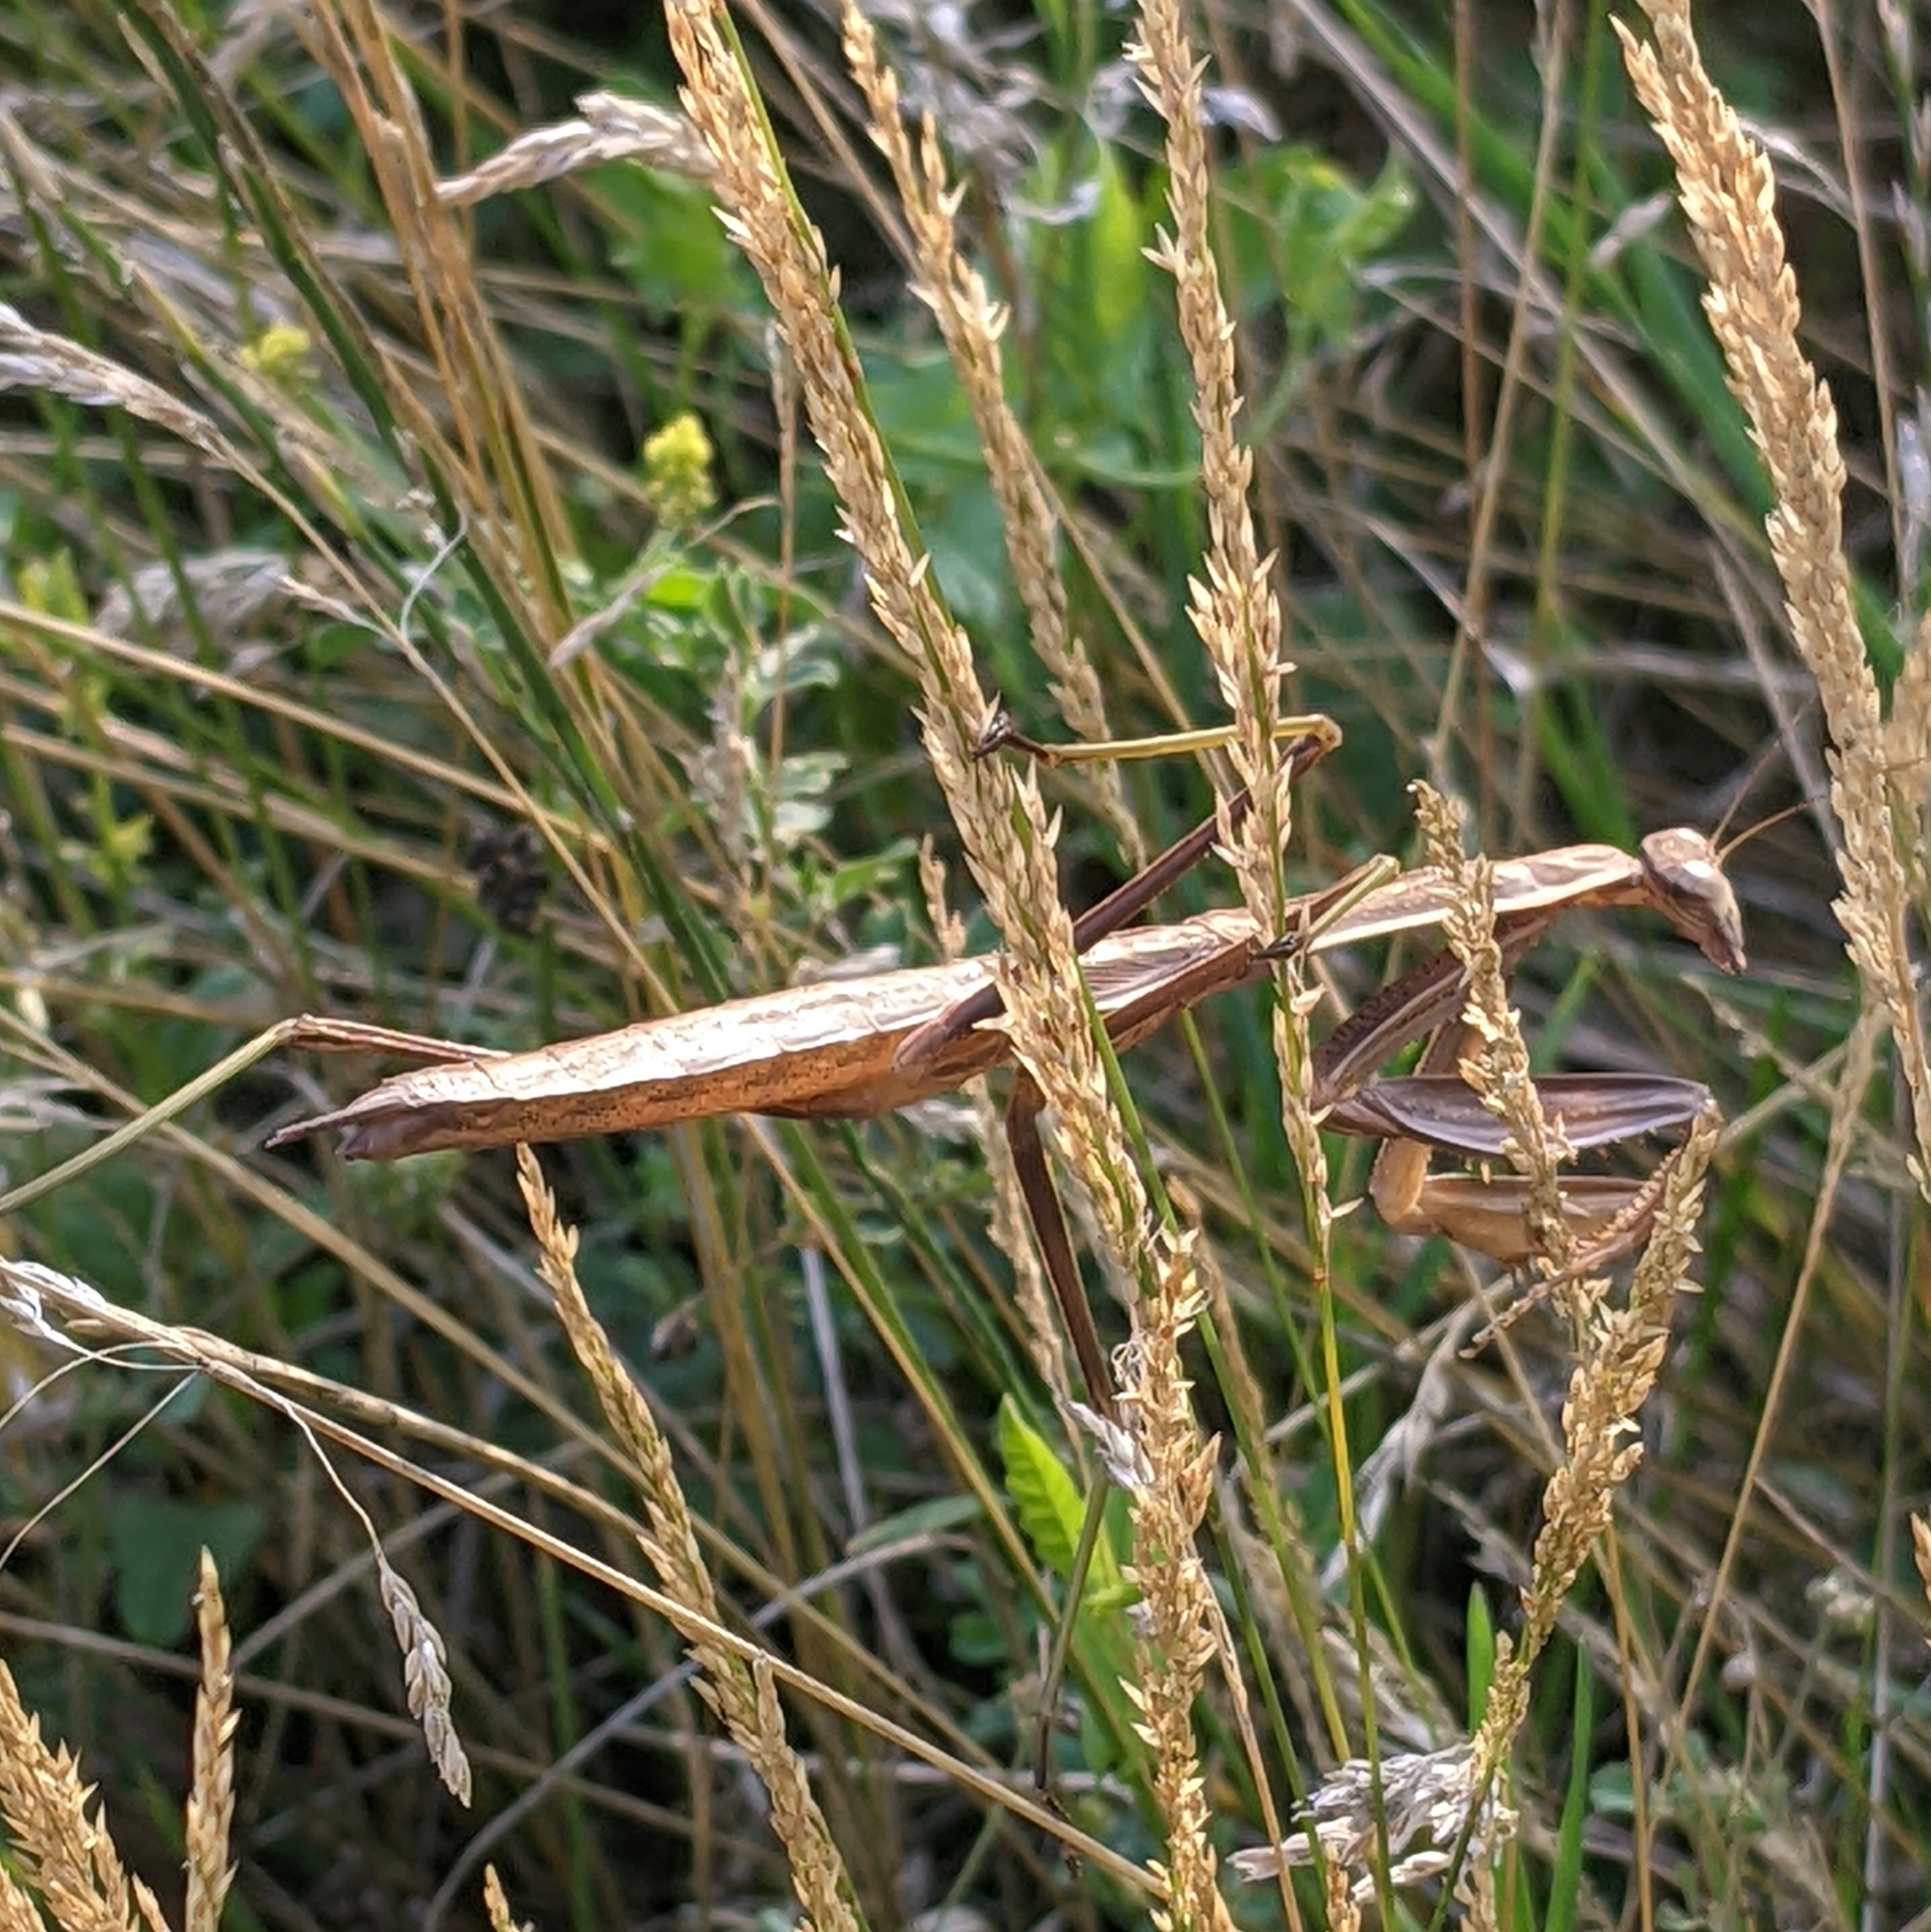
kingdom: Animalia
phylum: Arthropoda
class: Insecta
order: Mantodea
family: Mantidae
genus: Tenodera
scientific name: Tenodera sinensis
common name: Chinese mantis
